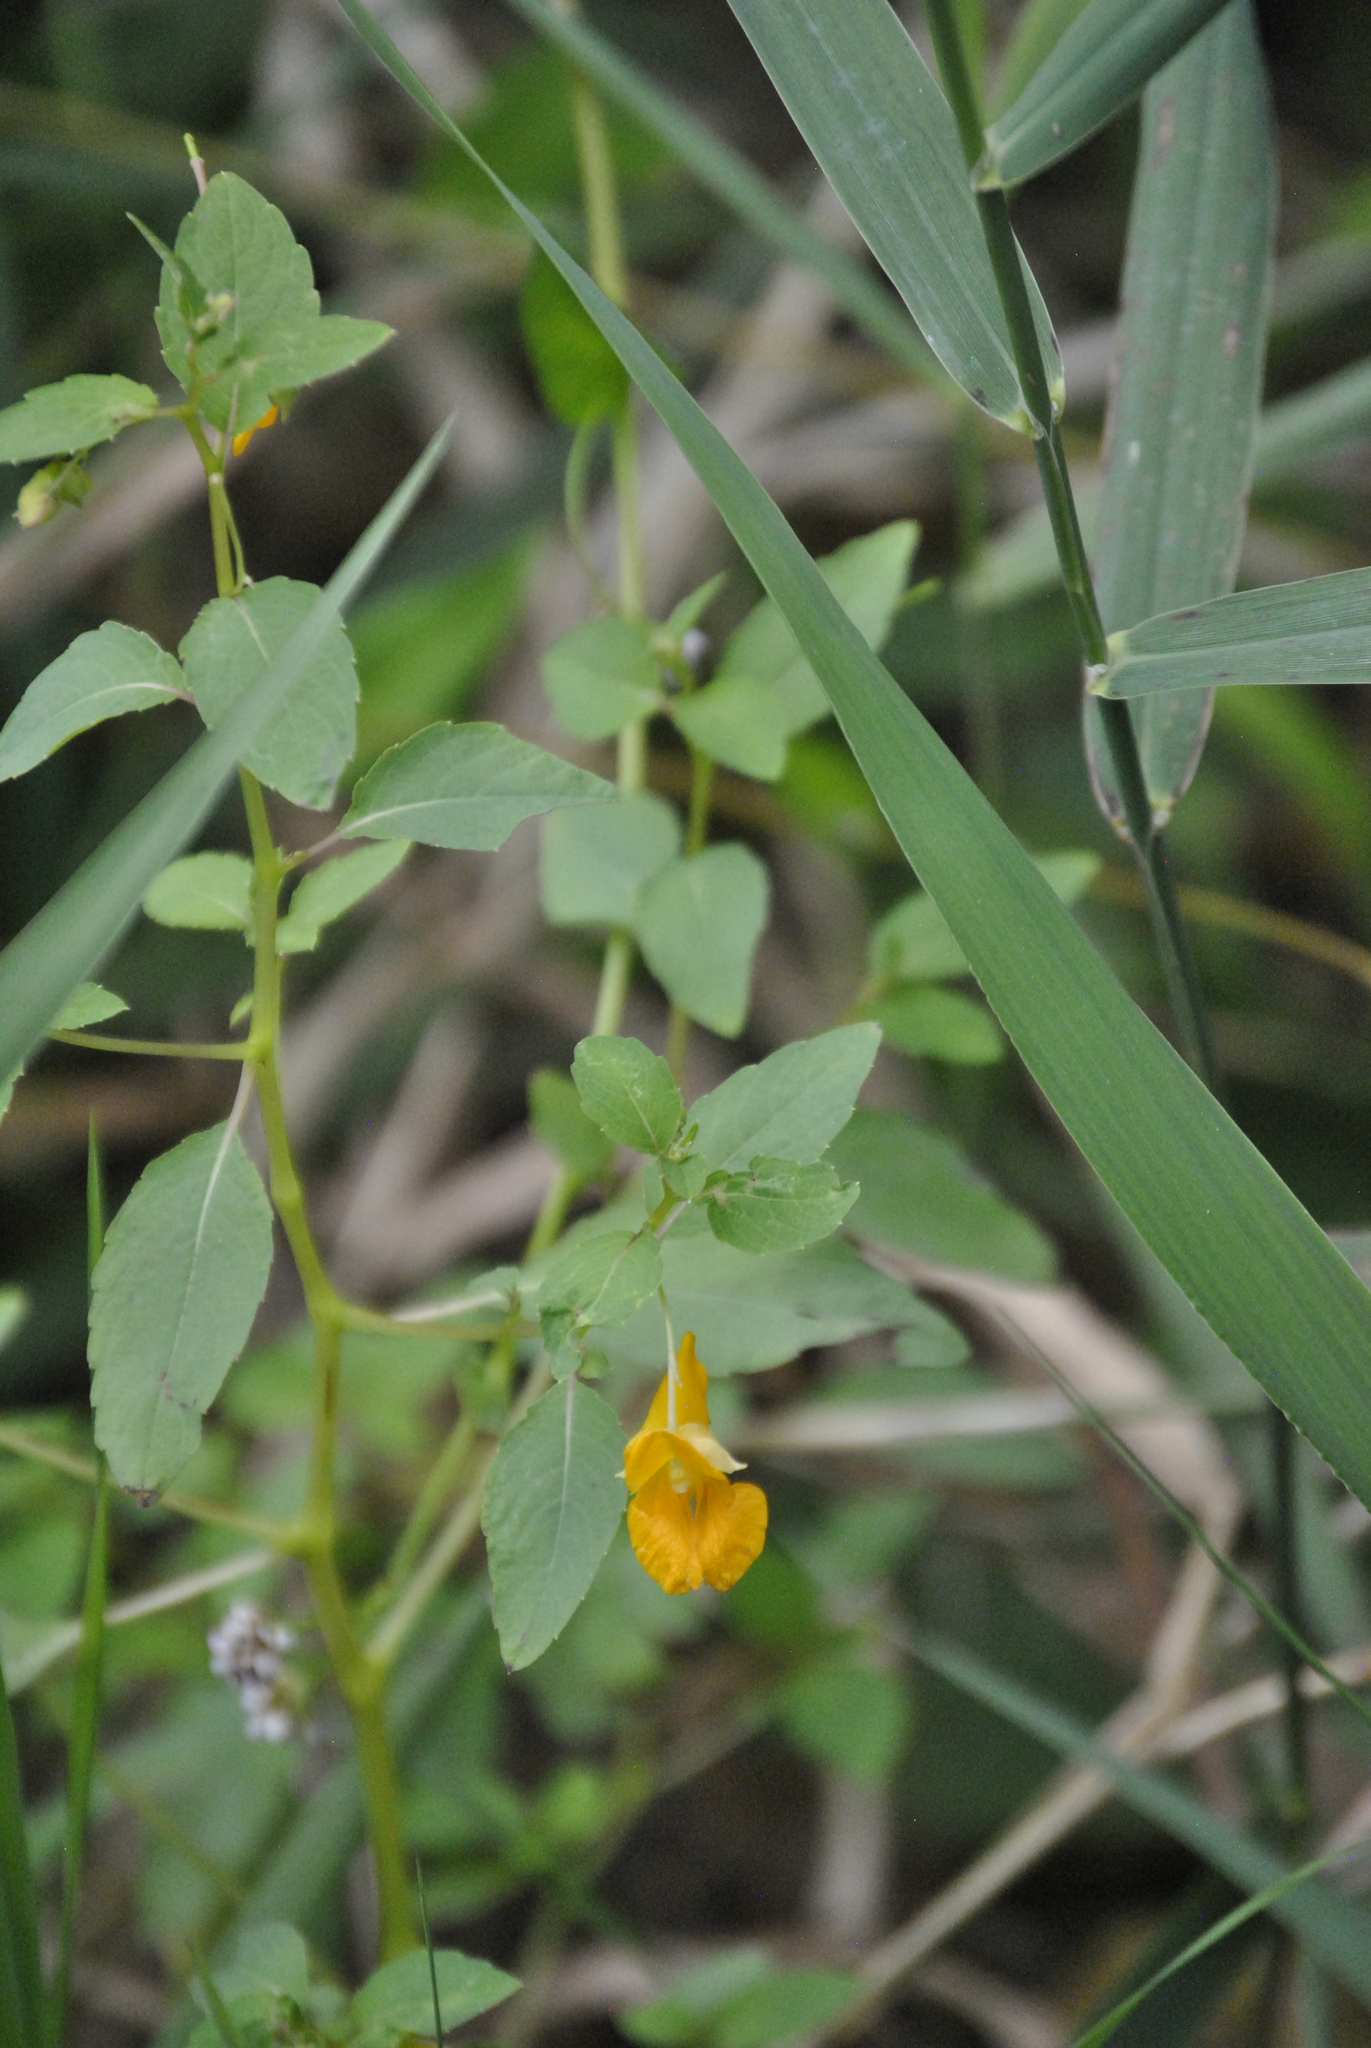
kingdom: Plantae
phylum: Tracheophyta
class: Magnoliopsida
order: Ericales
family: Balsaminaceae
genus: Impatiens
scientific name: Impatiens capensis
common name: Orange balsam
